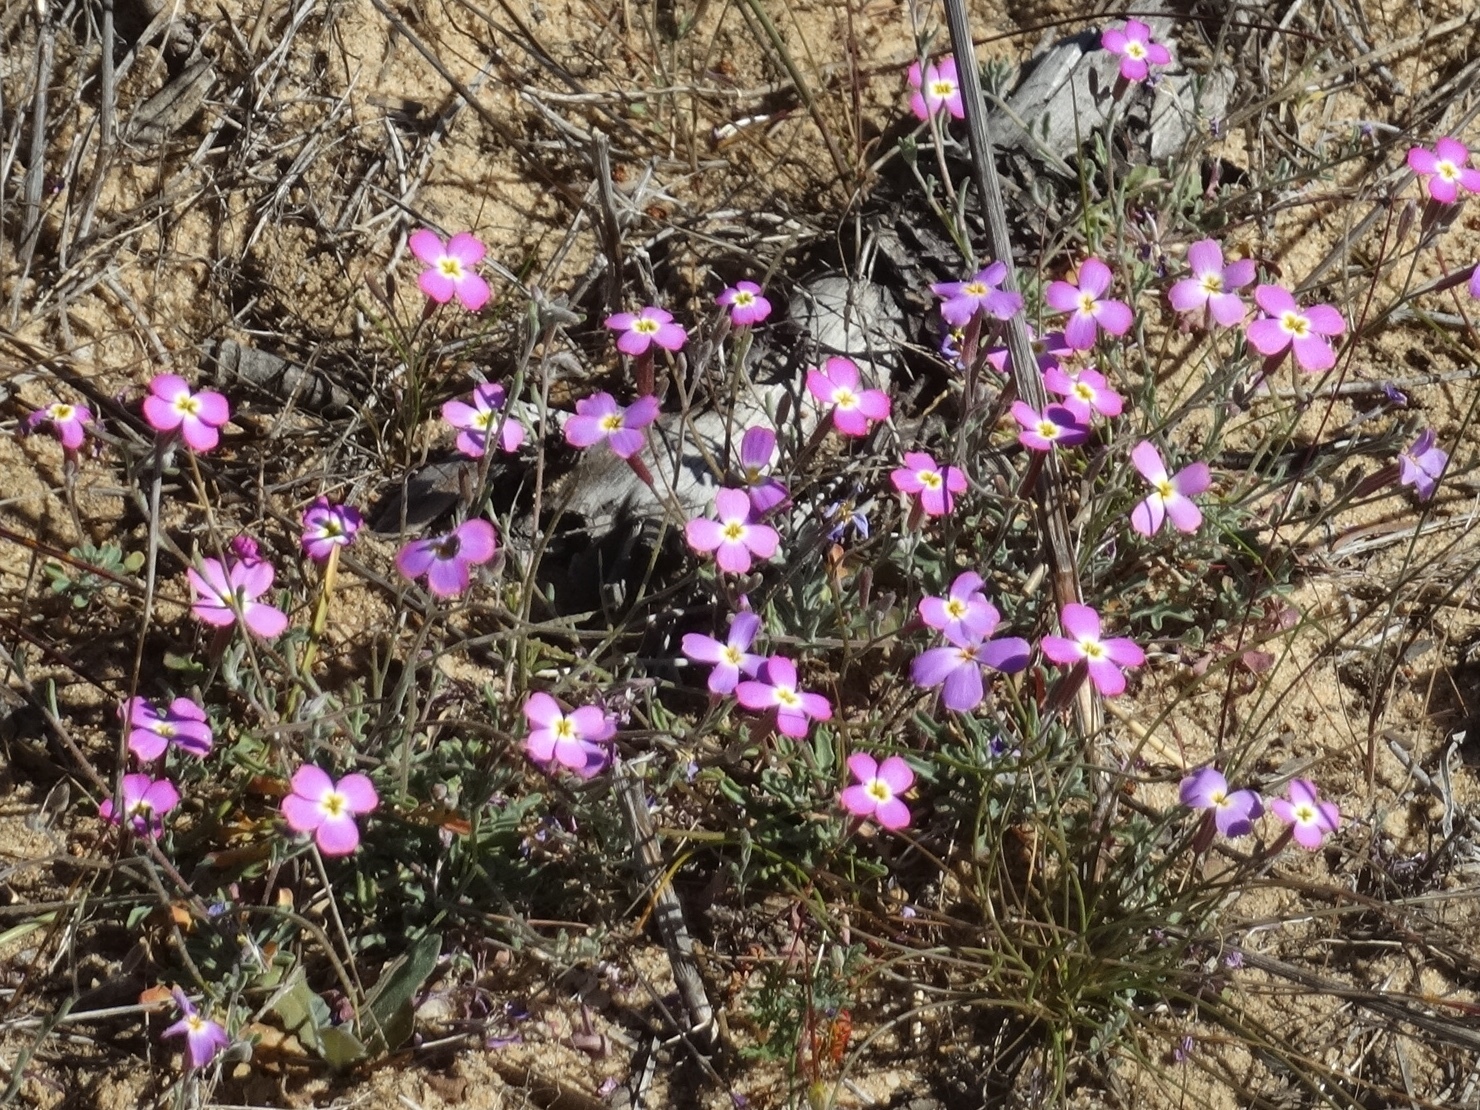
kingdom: Plantae
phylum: Tracheophyta
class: Magnoliopsida
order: Brassicales
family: Brassicaceae
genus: Marcuskochia
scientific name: Marcuskochia littorea
